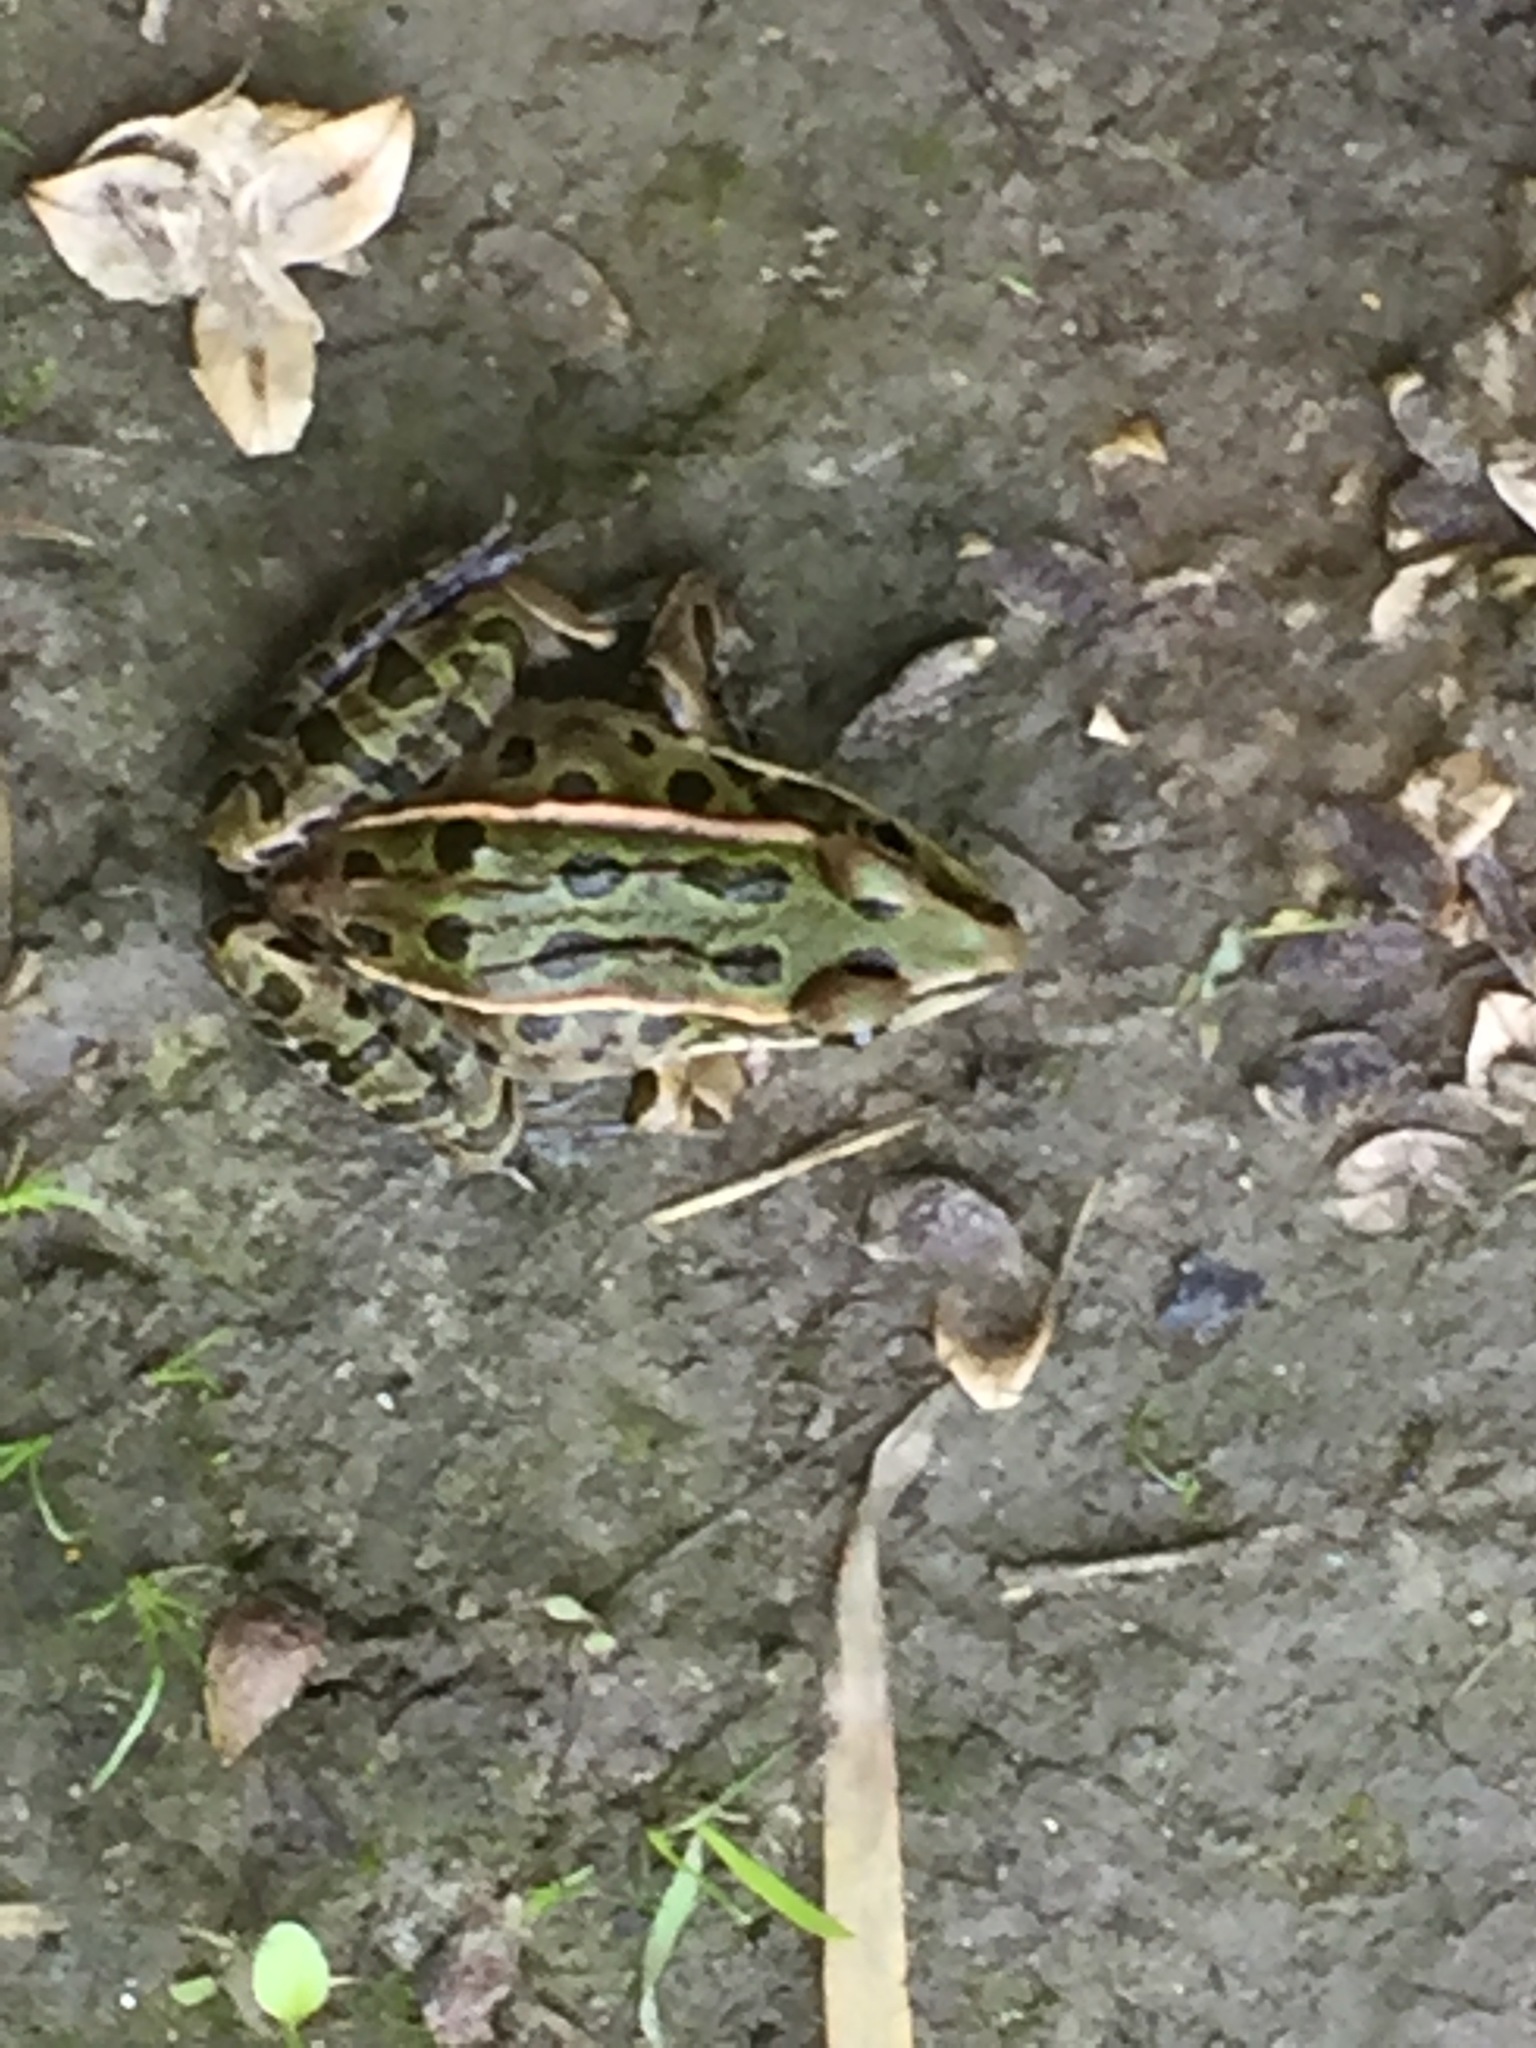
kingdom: Animalia
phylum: Chordata
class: Amphibia
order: Anura
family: Ranidae
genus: Lithobates
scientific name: Lithobates pipiens
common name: Northern leopard frog
